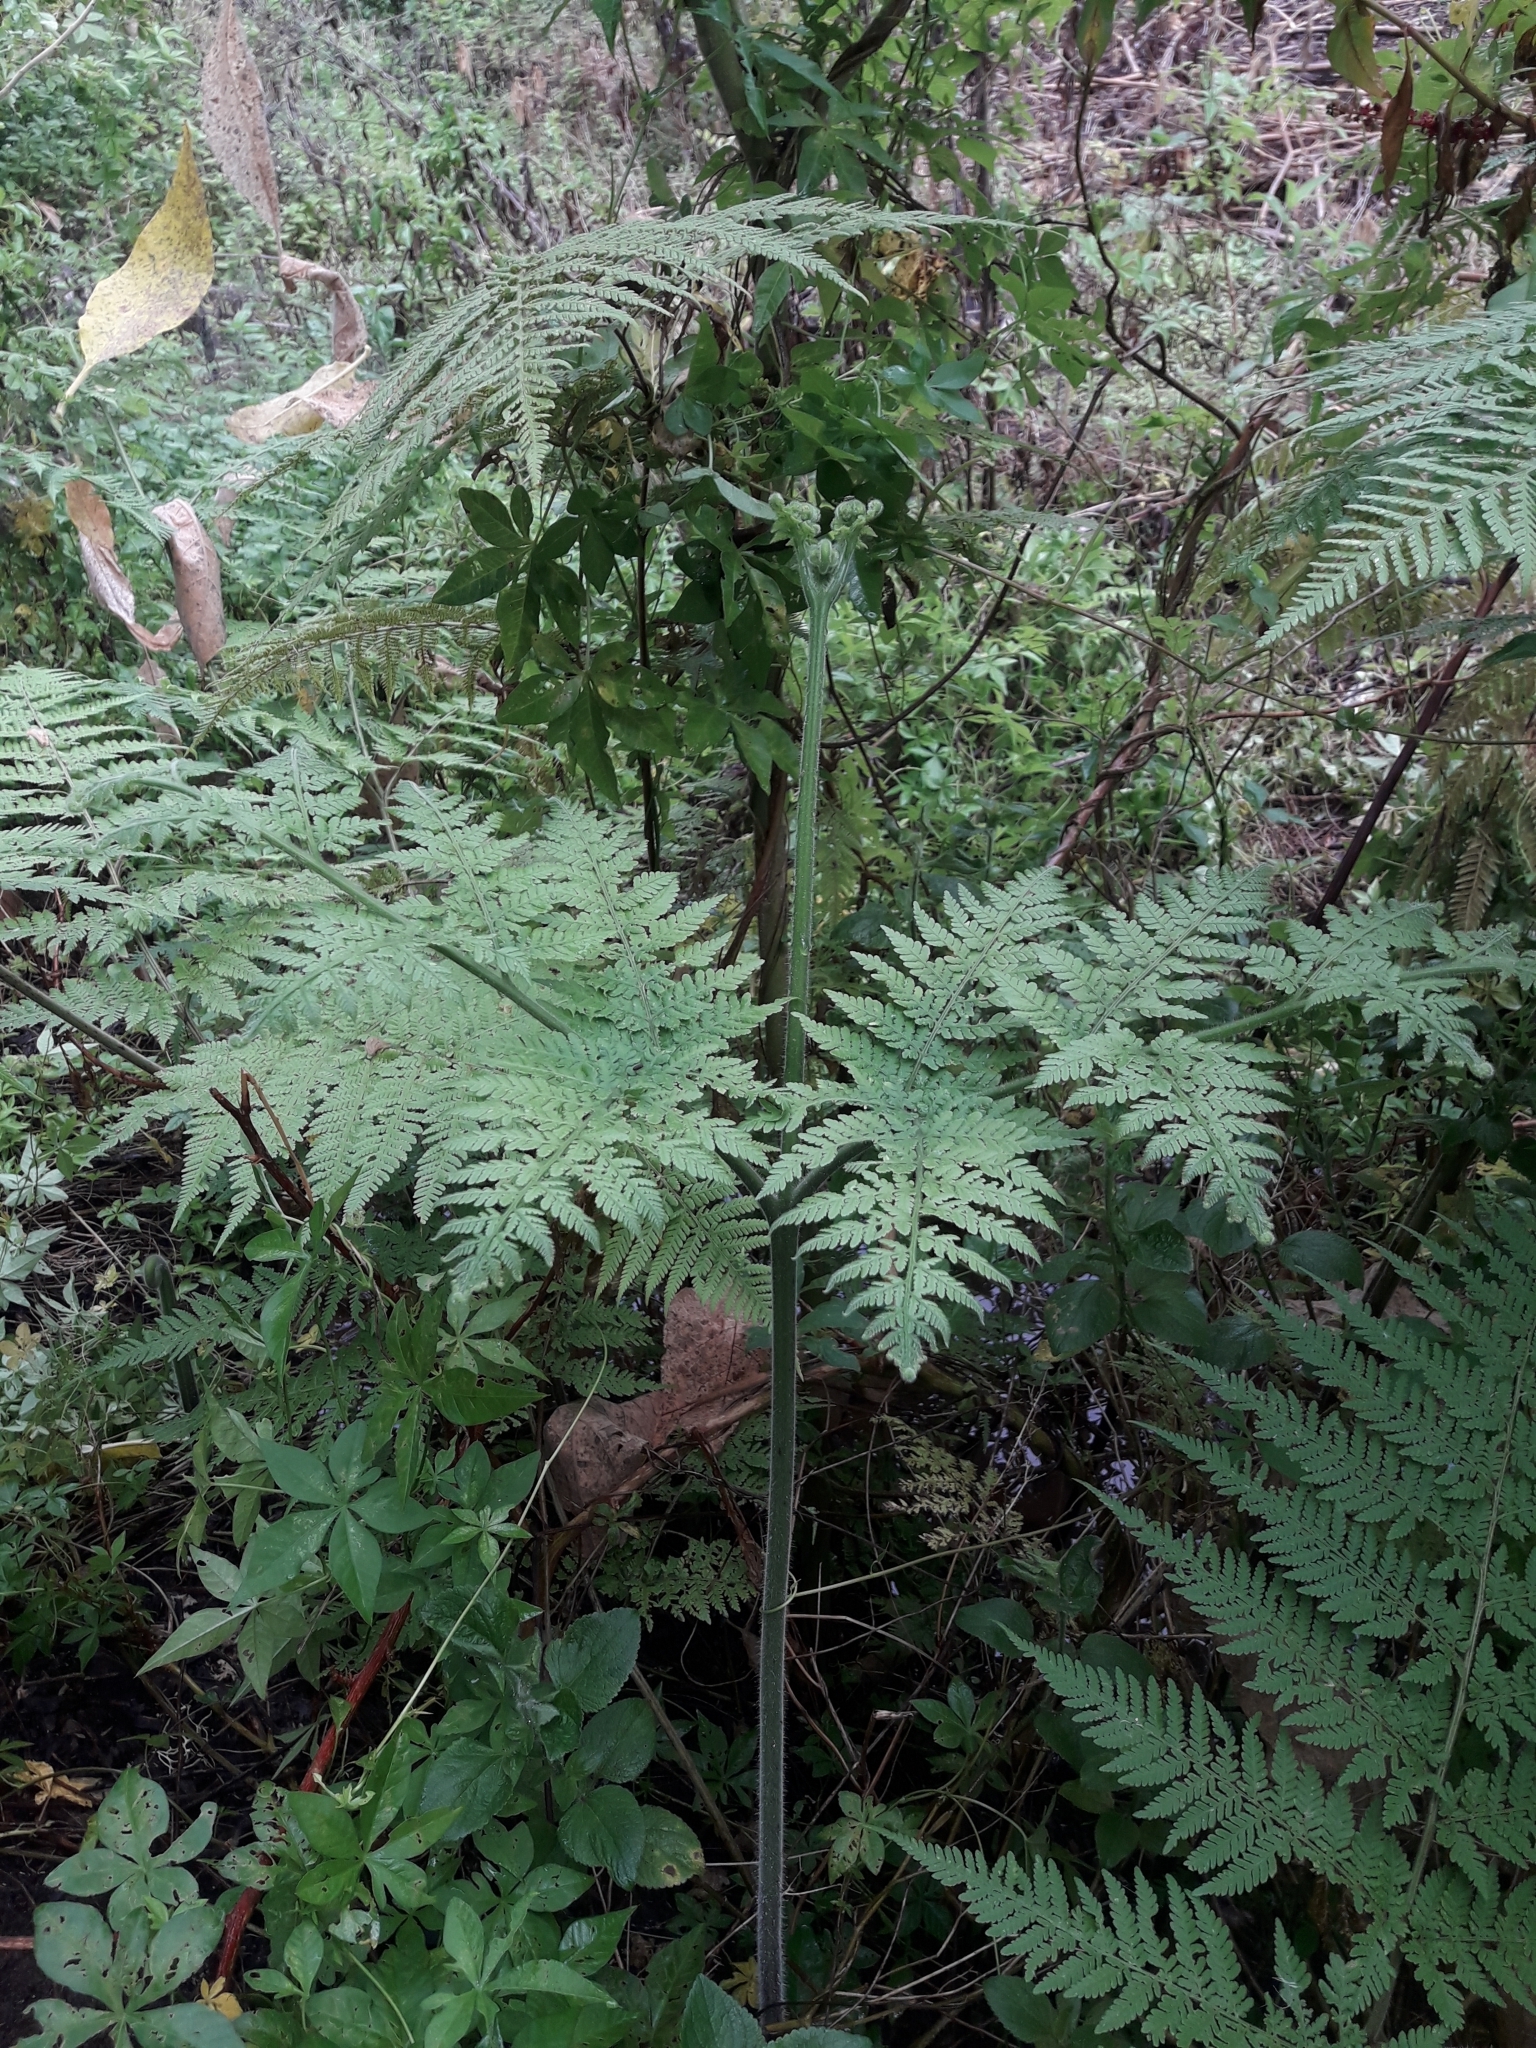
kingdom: Plantae
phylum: Tracheophyta
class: Polypodiopsida
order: Polypodiales
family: Dennstaedtiaceae
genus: Hypolepis
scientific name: Hypolepis tenuifolia
